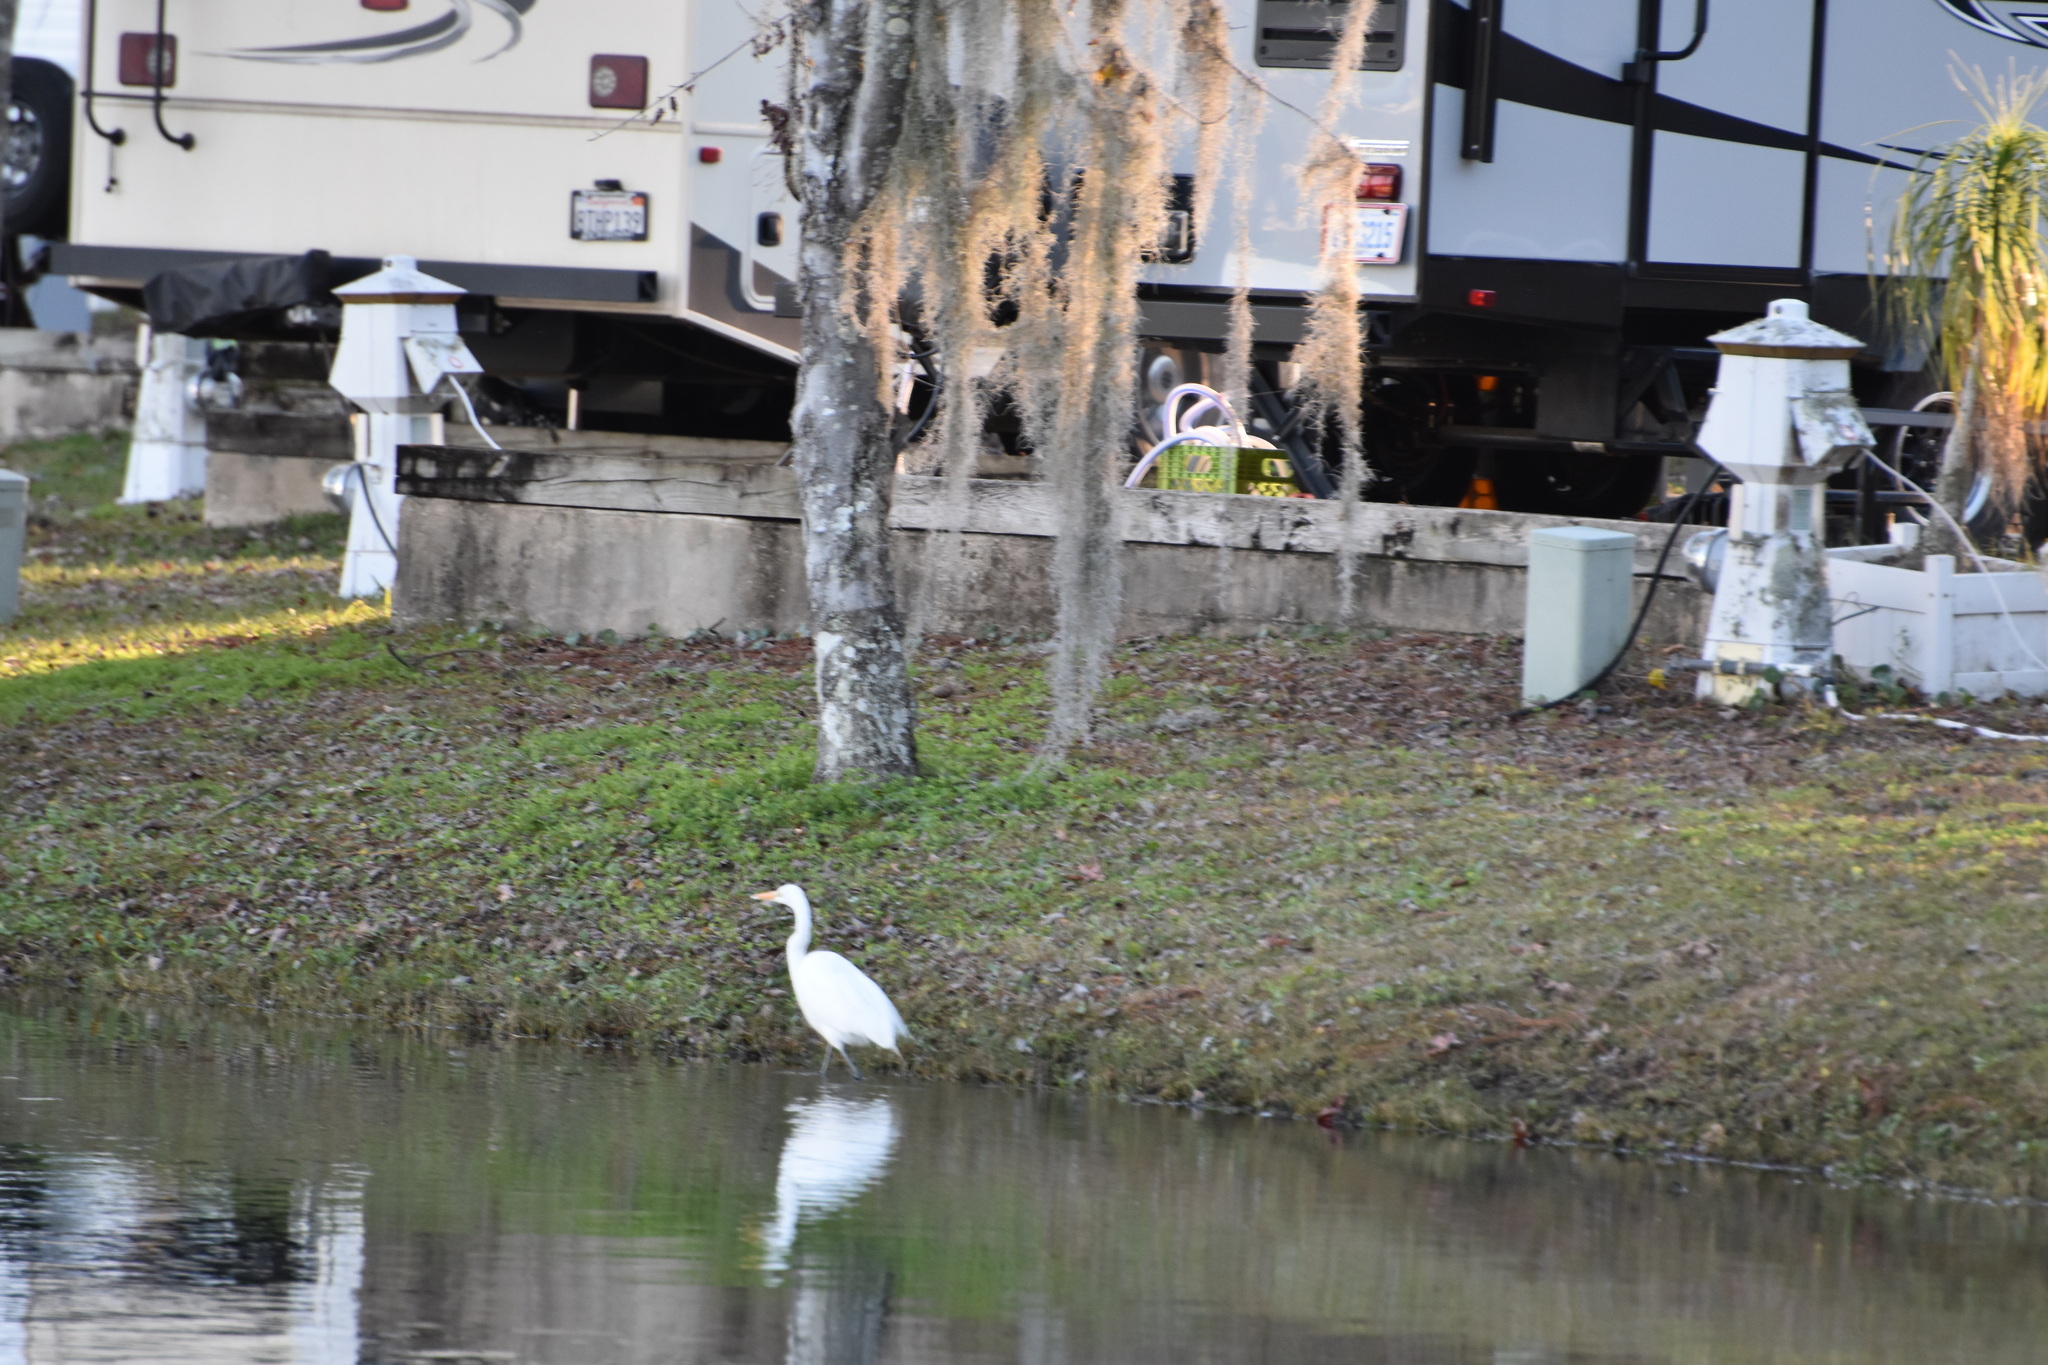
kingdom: Animalia
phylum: Chordata
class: Aves
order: Pelecaniformes
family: Ardeidae
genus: Ardea
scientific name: Ardea alba
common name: Great egret
